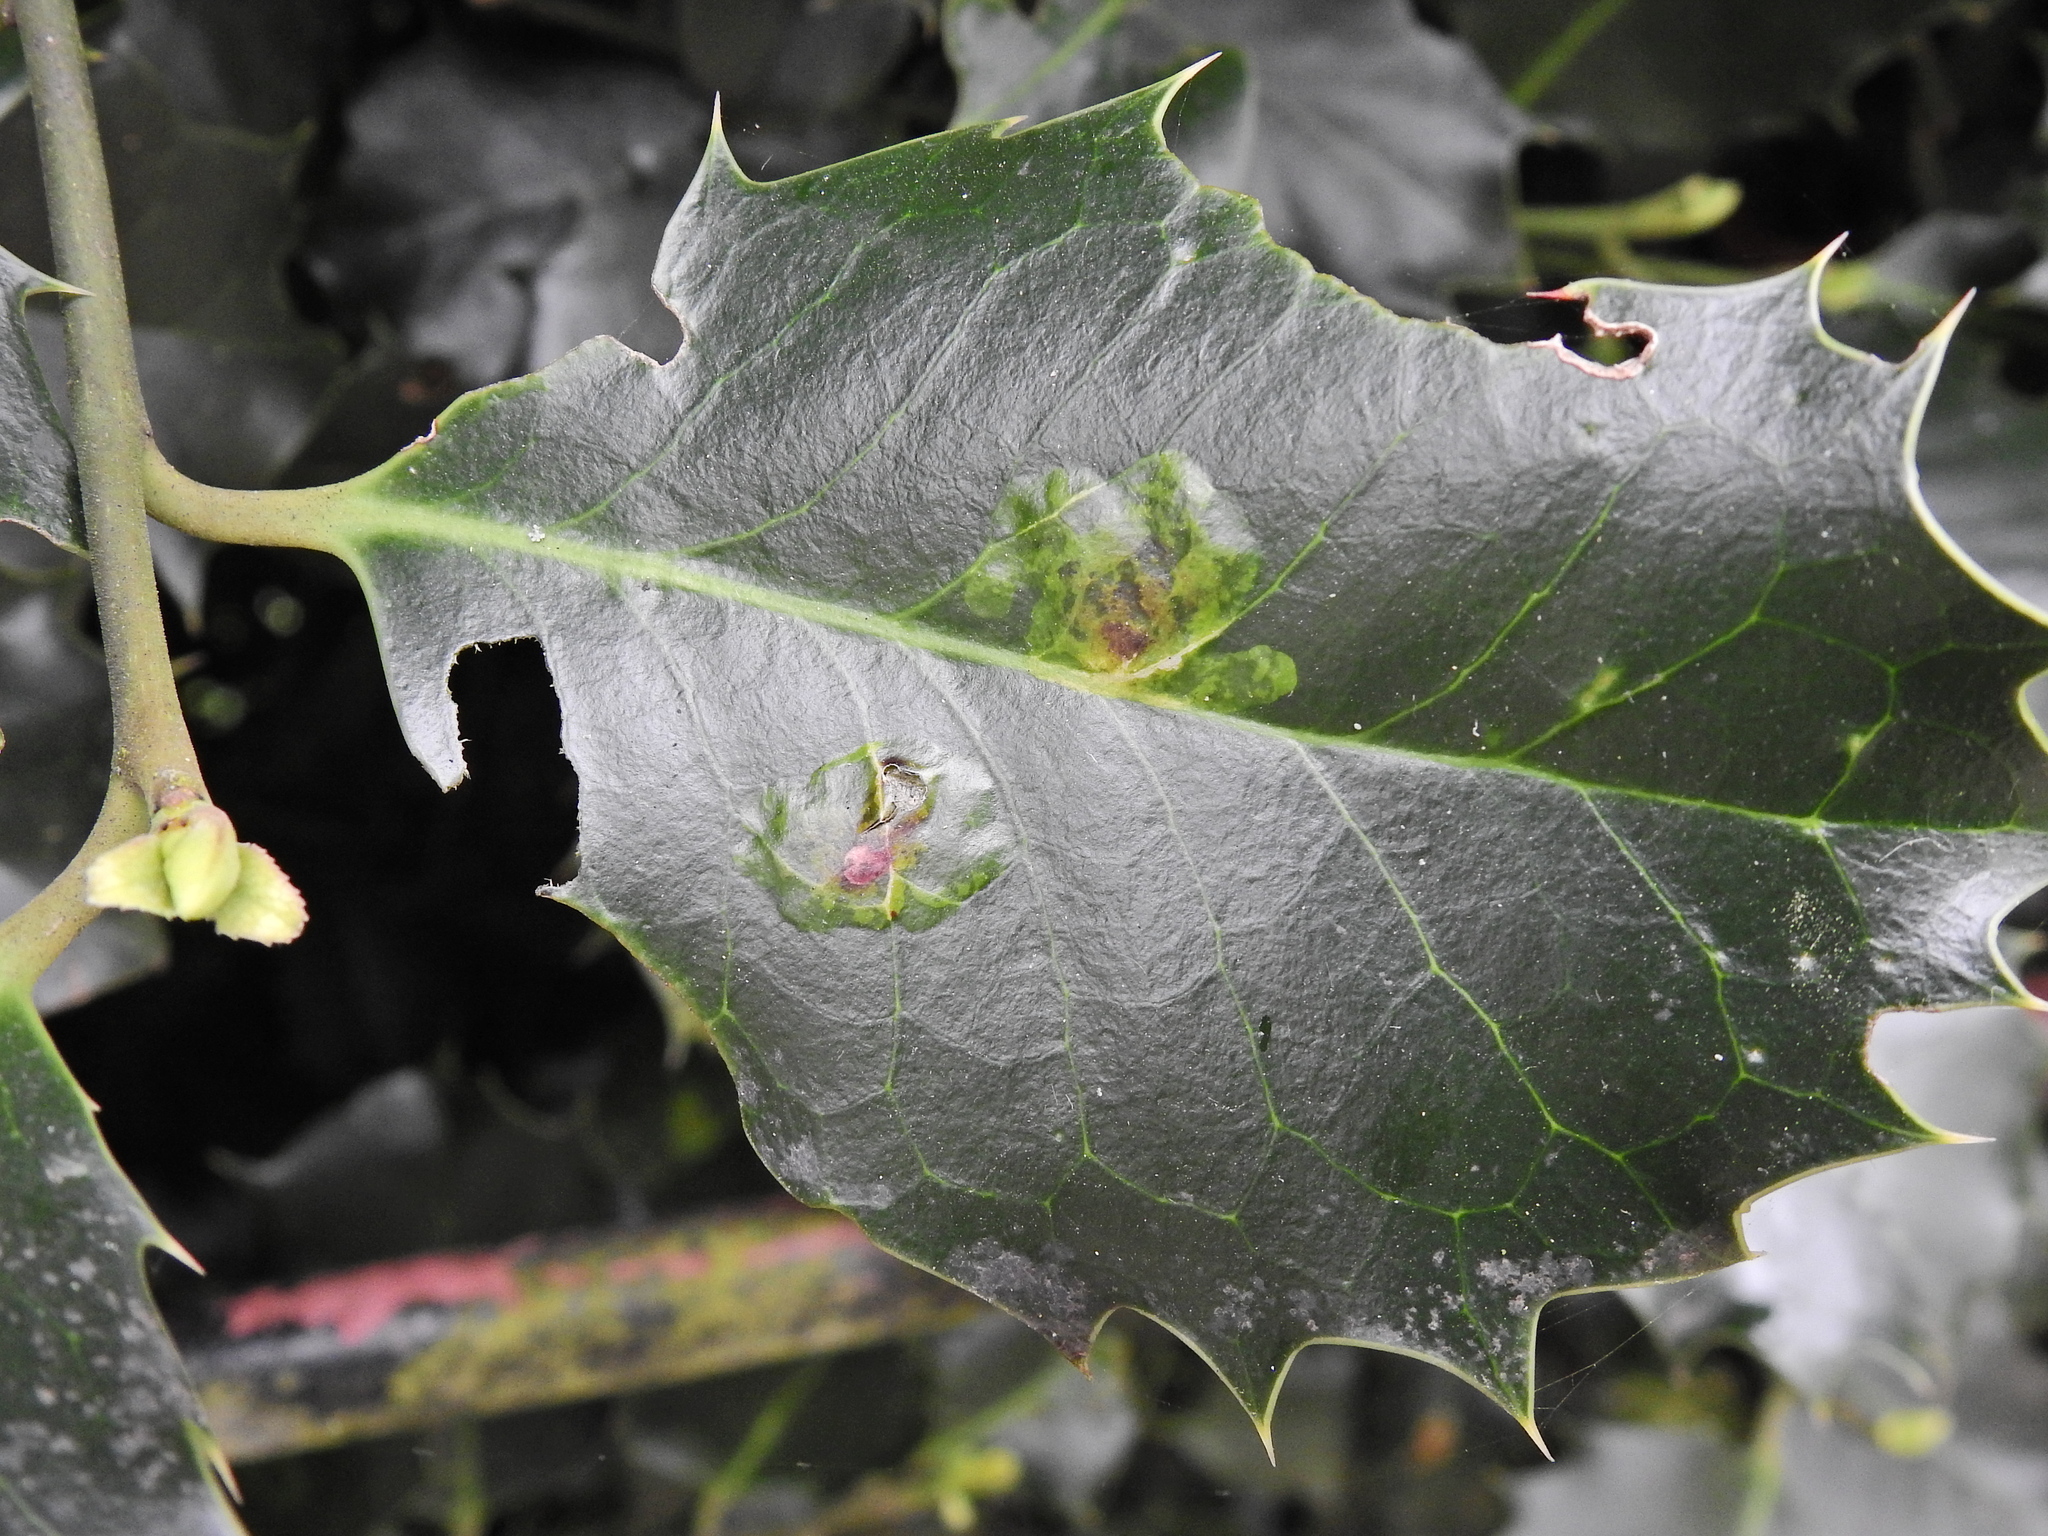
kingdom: Animalia
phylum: Arthropoda
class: Insecta
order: Diptera
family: Agromyzidae
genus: Phytomyza
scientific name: Phytomyza ilicis
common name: Holly leafminer
